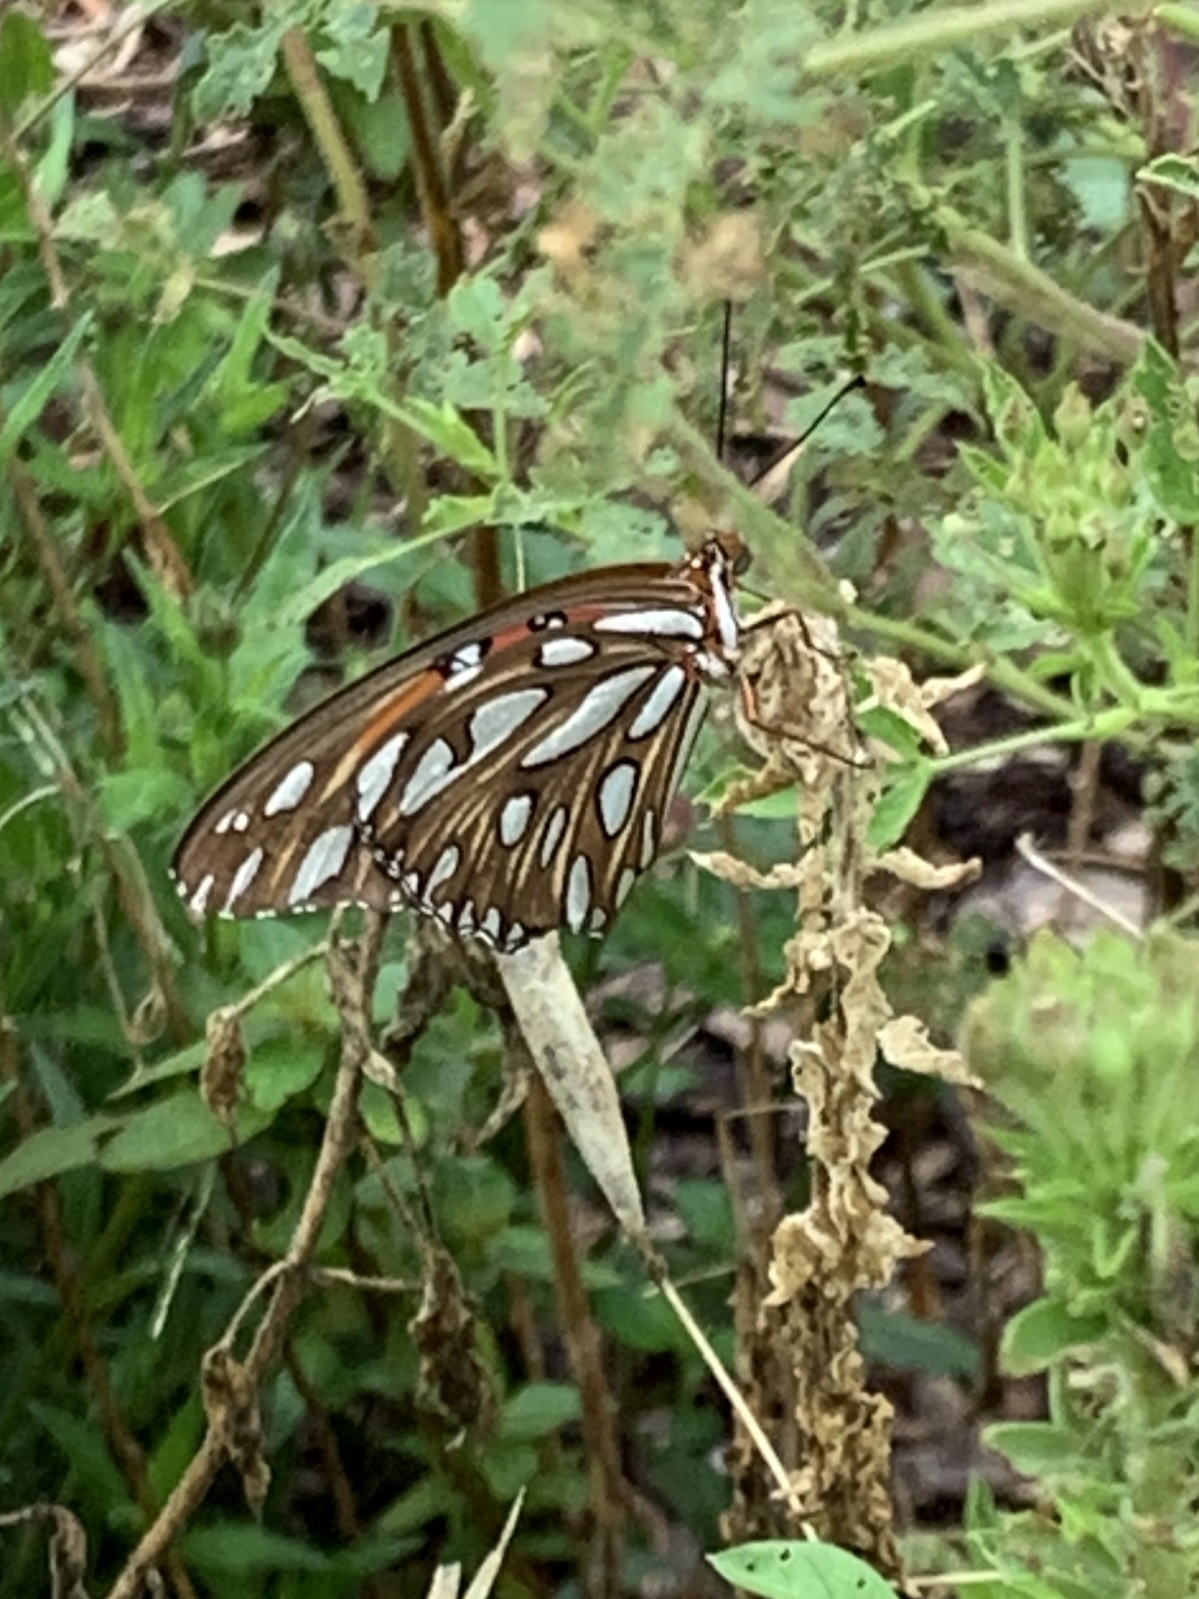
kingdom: Animalia
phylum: Arthropoda
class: Insecta
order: Lepidoptera
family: Nymphalidae
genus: Dione
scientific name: Dione vanillae
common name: Gulf fritillary
